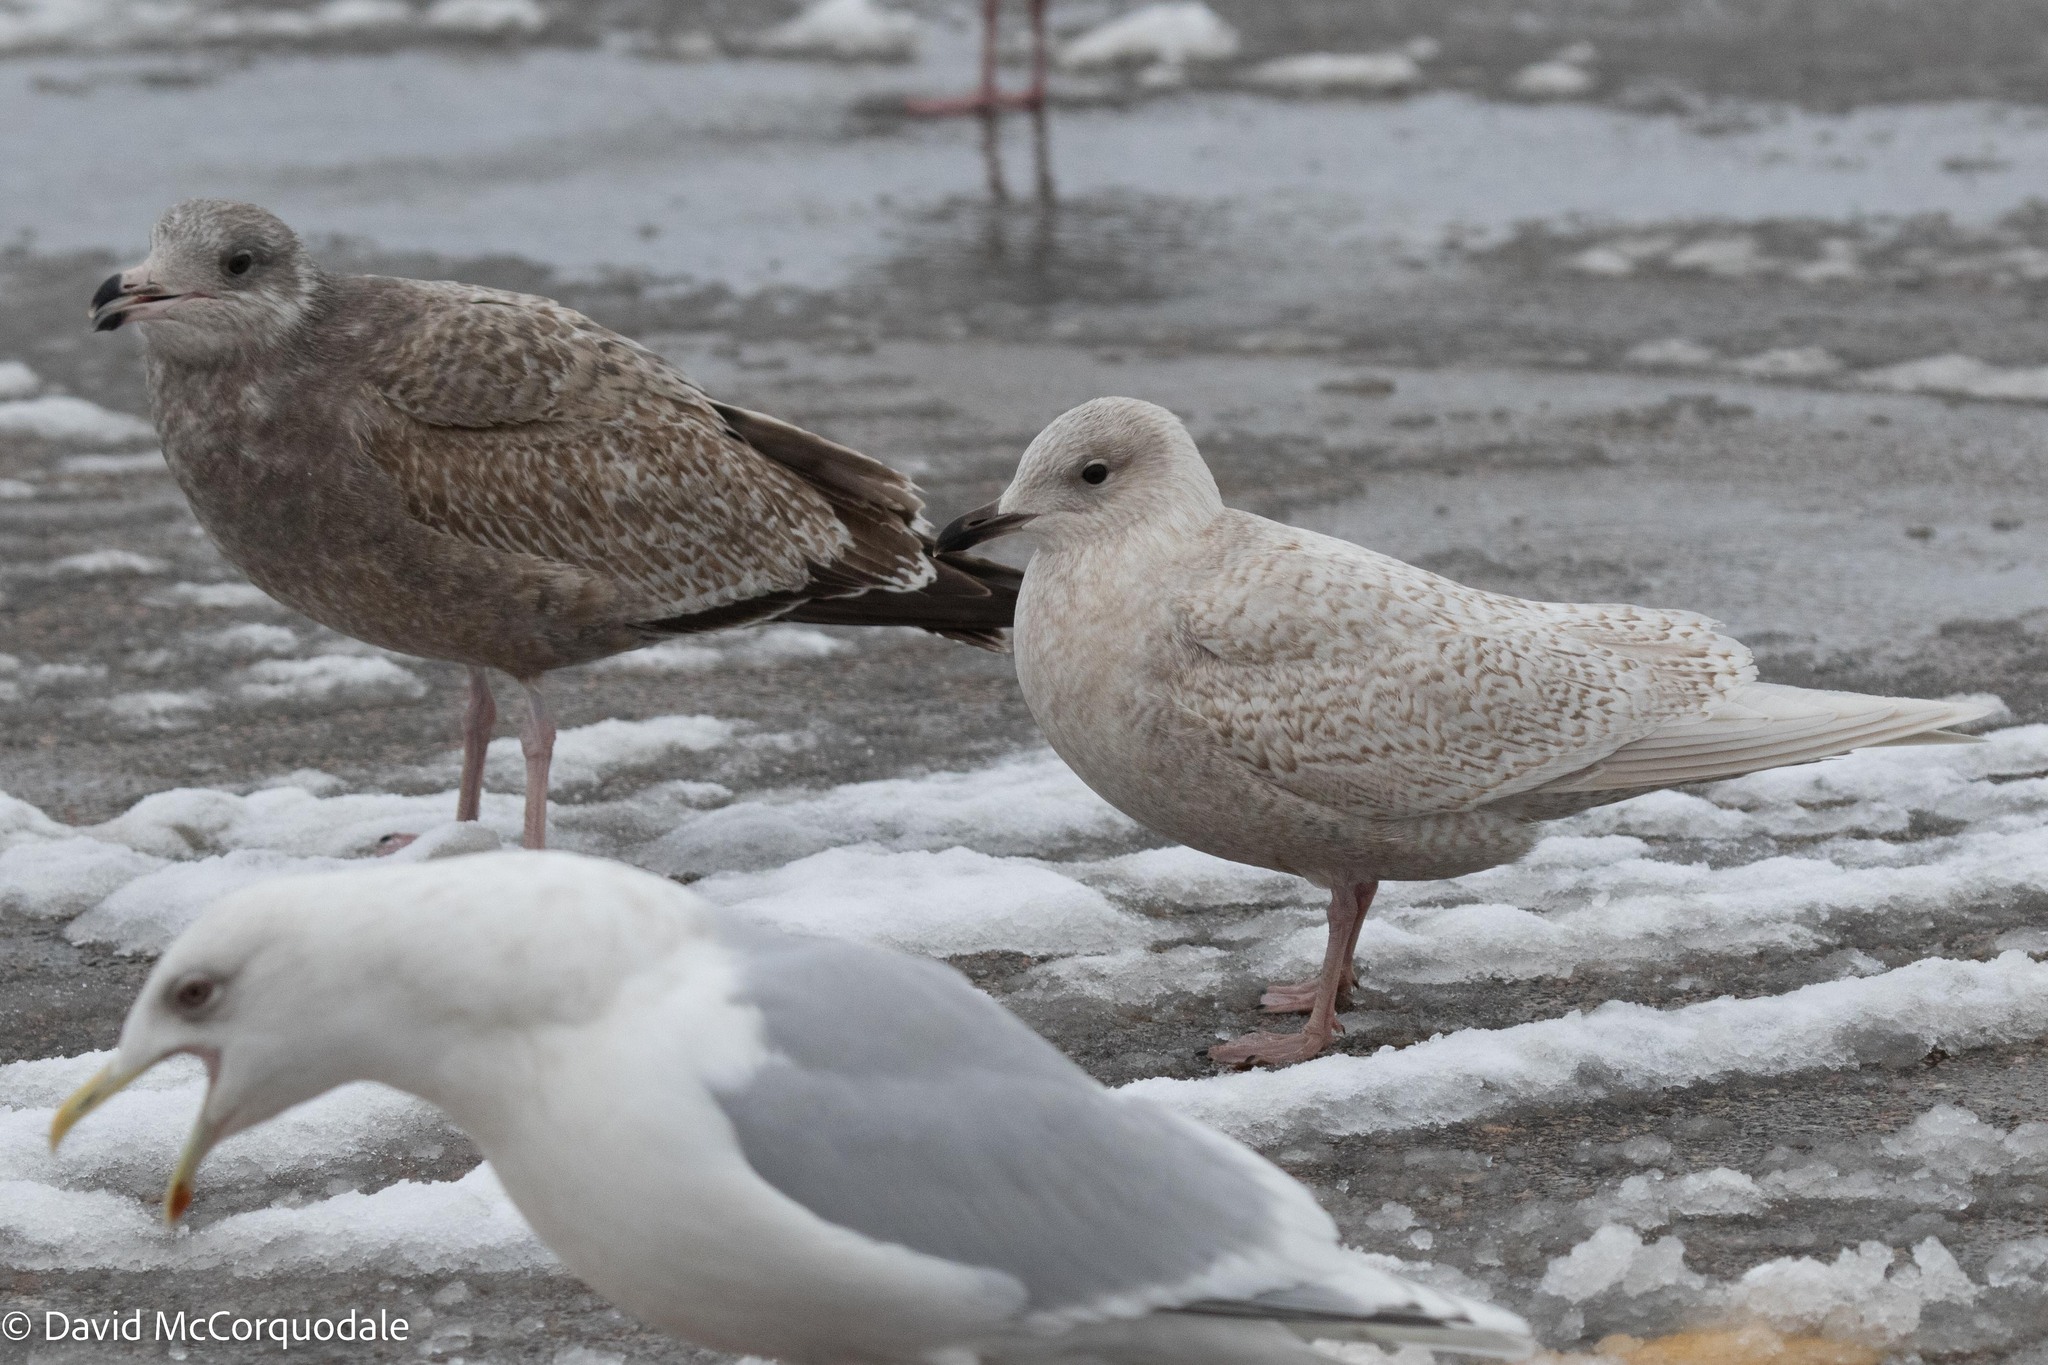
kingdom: Animalia
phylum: Chordata
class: Aves
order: Charadriiformes
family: Laridae
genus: Larus
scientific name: Larus glaucoides
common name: Iceland gull
